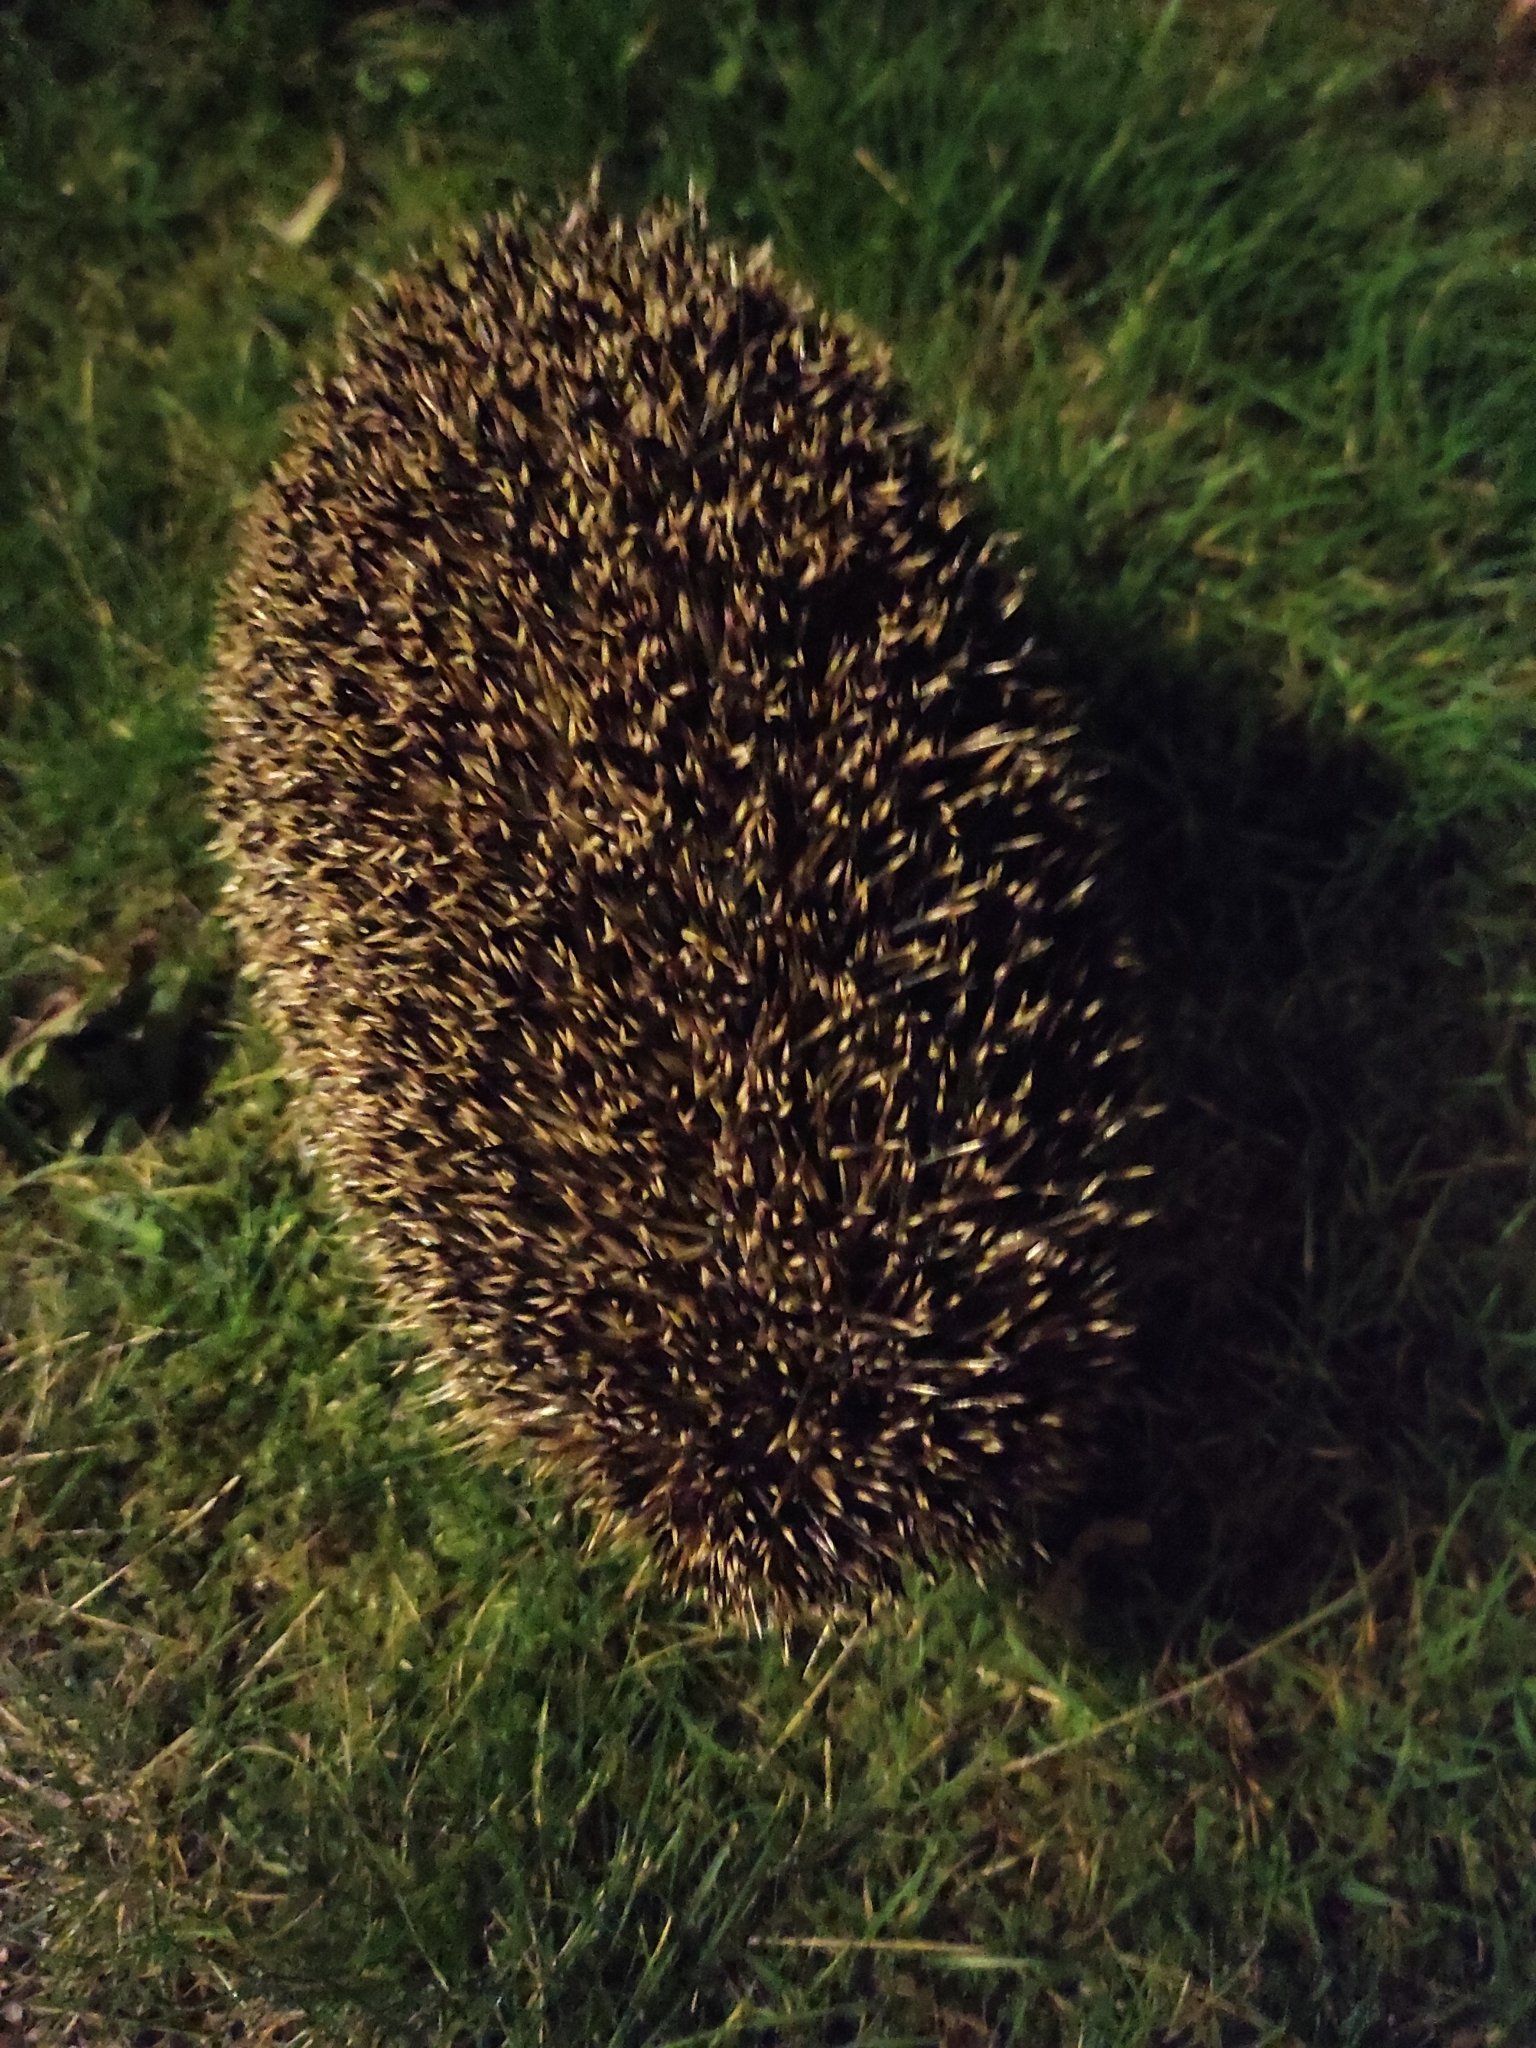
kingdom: Animalia
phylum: Chordata
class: Mammalia
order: Erinaceomorpha
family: Erinaceidae
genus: Erinaceus
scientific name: Erinaceus europaeus
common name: West european hedgehog
